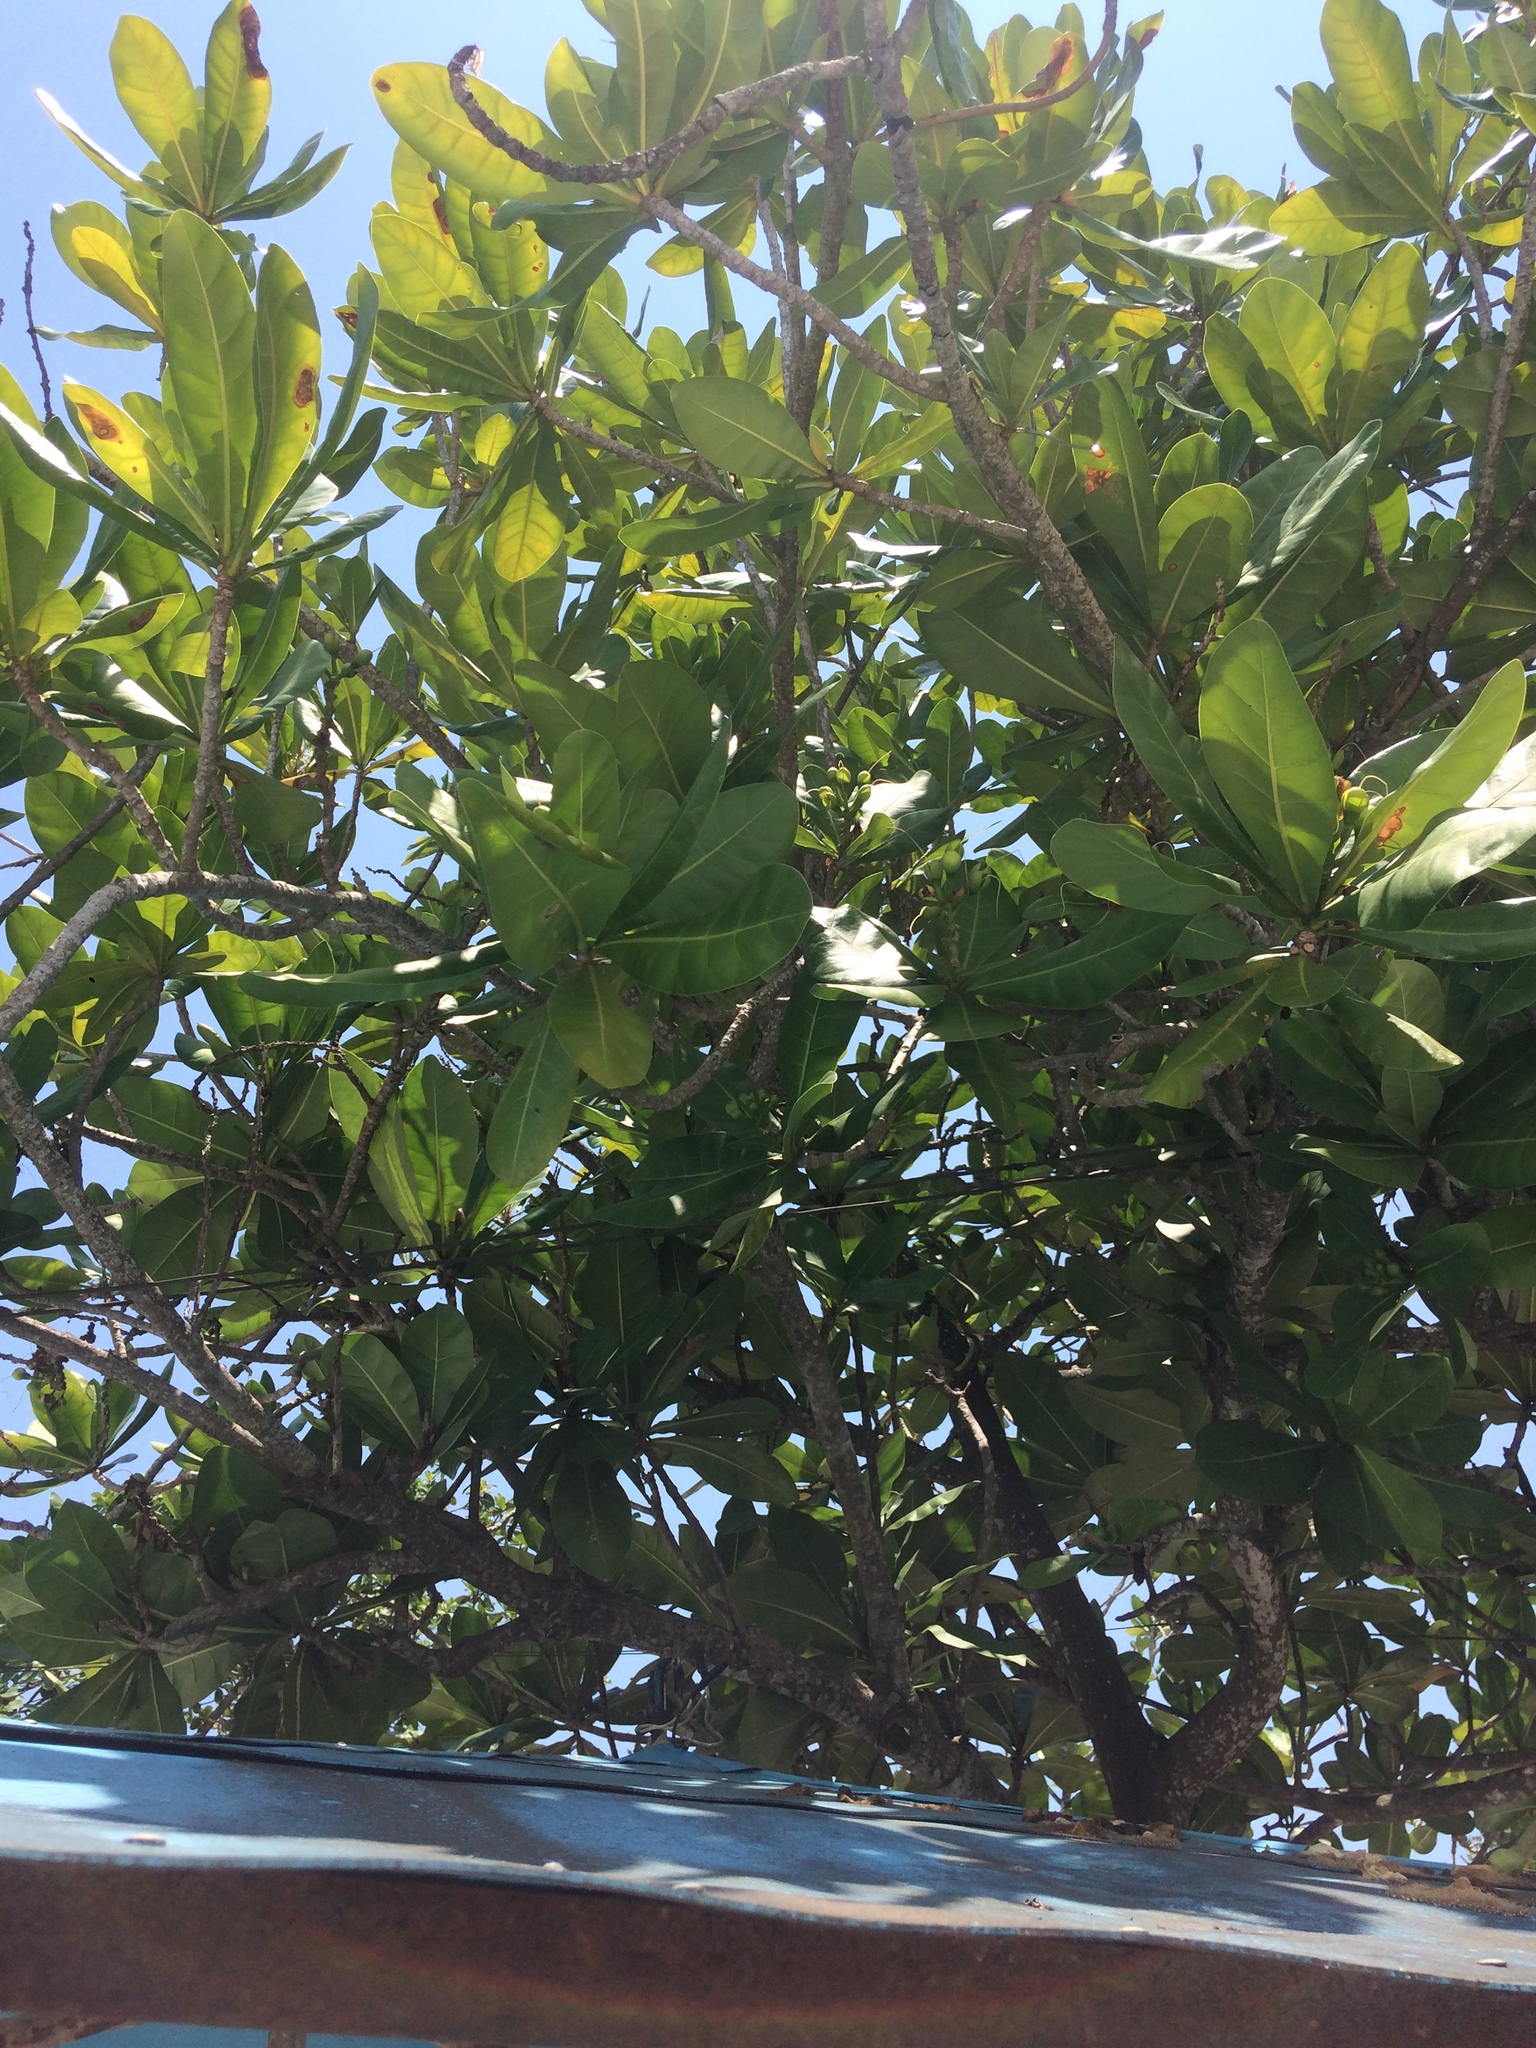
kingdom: Plantae
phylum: Tracheophyta
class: Magnoliopsida
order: Ericales
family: Lecythidaceae
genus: Barringtonia
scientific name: Barringtonia asiatica
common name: Mango-pine
